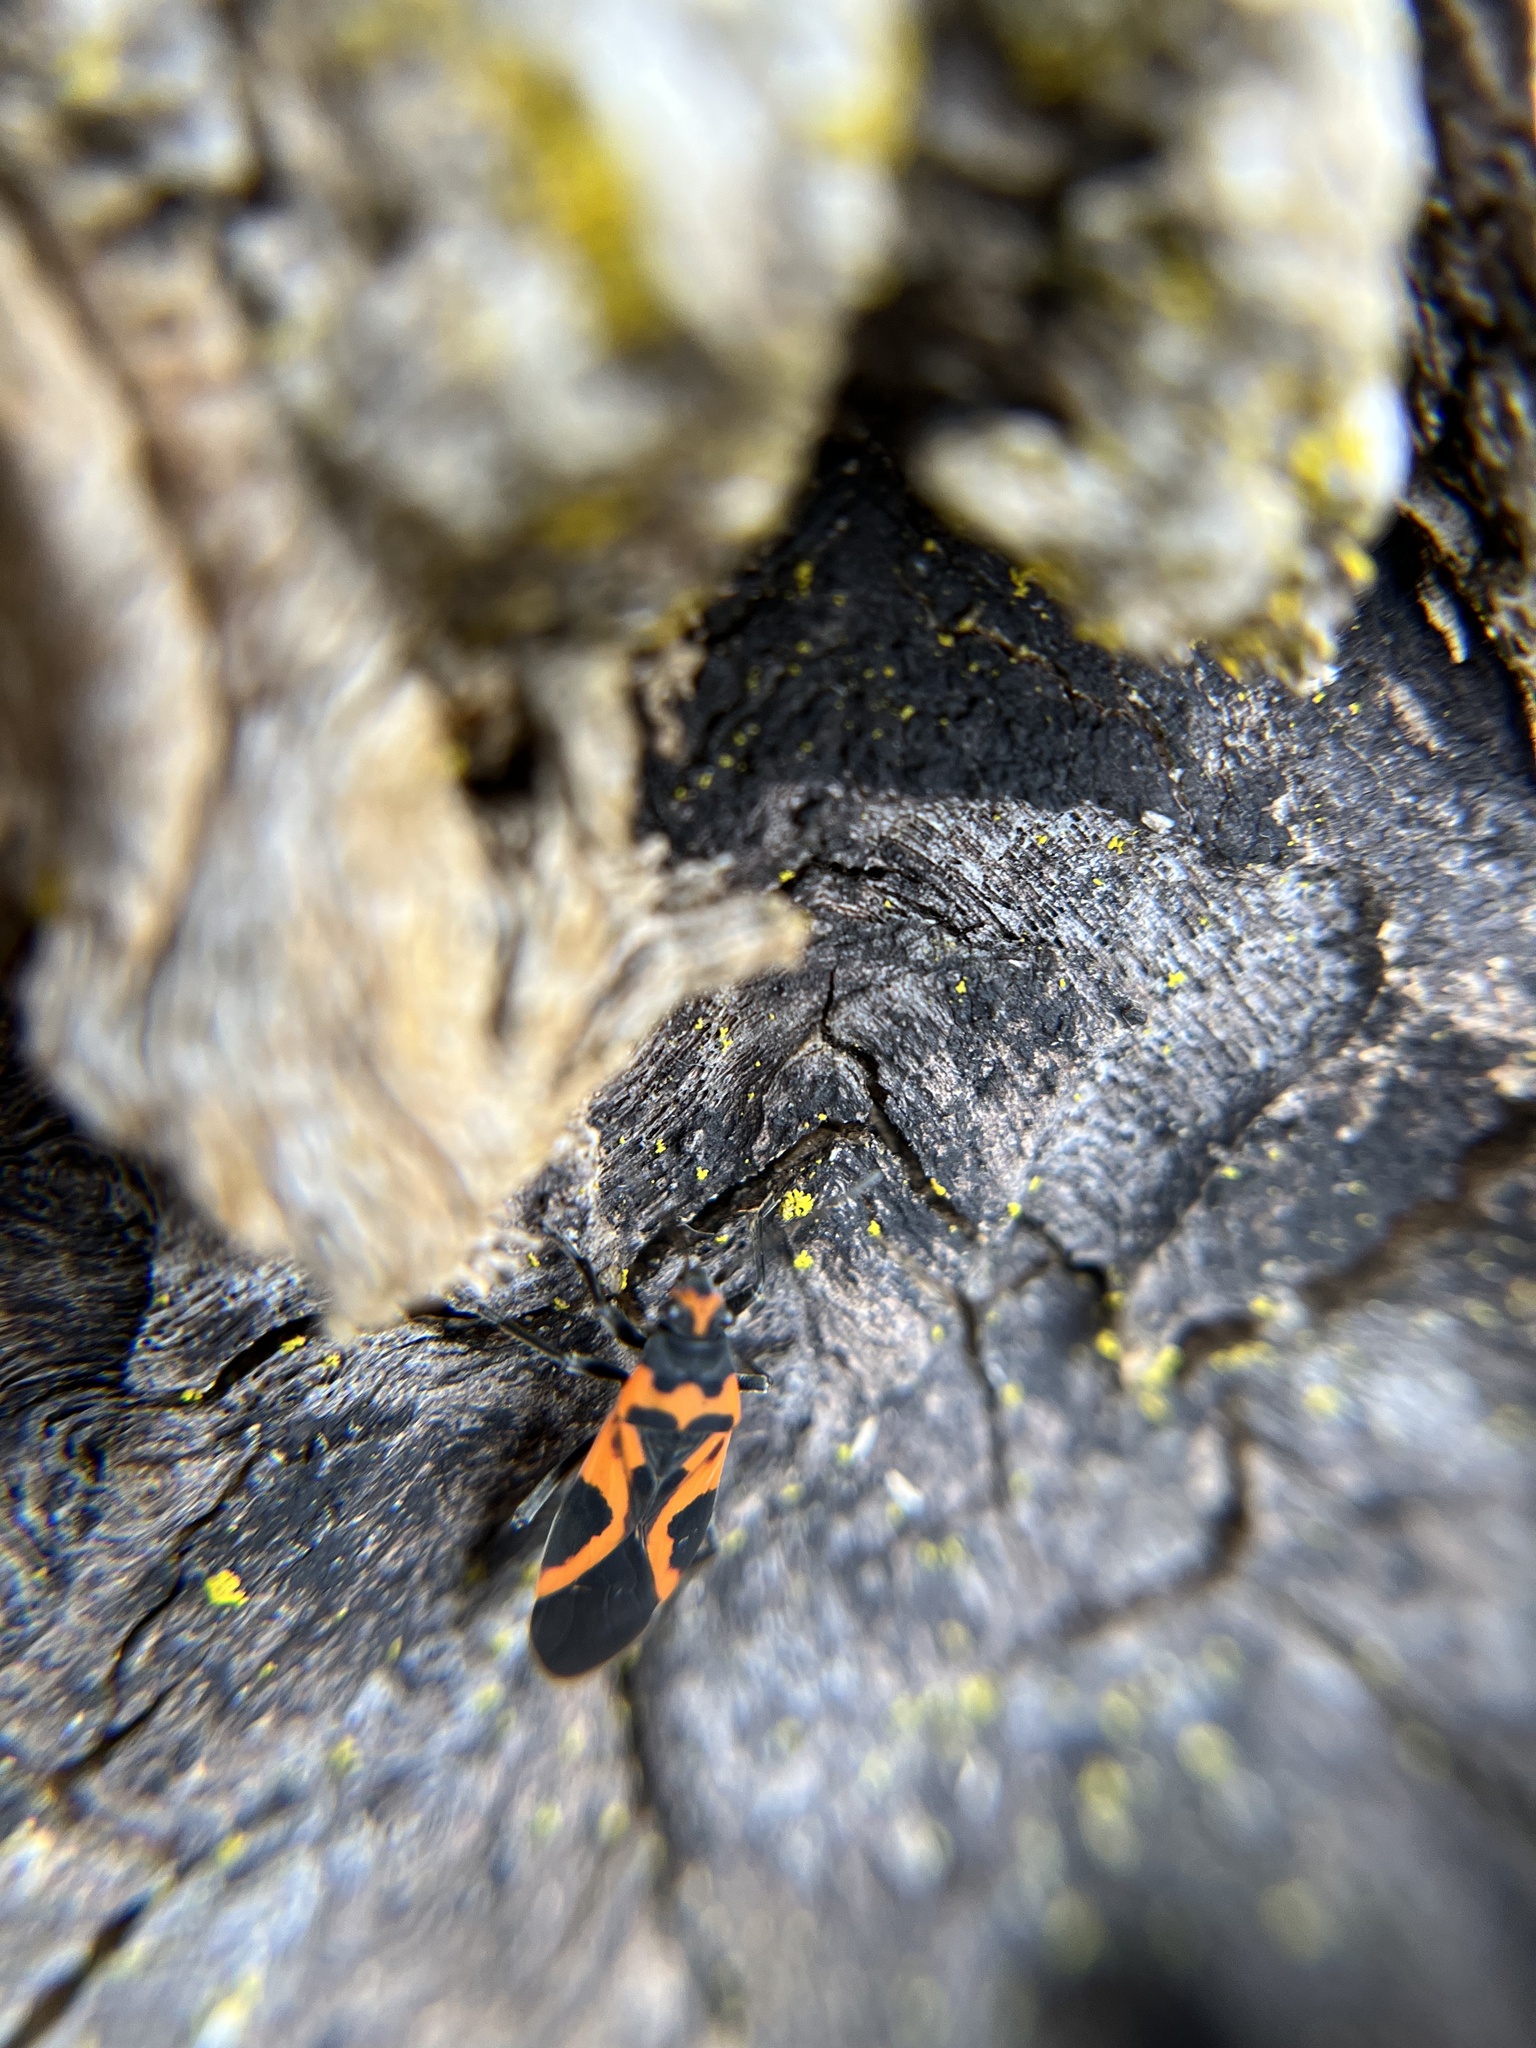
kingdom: Animalia
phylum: Arthropoda
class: Insecta
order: Hemiptera
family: Lygaeidae
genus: Lygaeus
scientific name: Lygaeus turcicus
